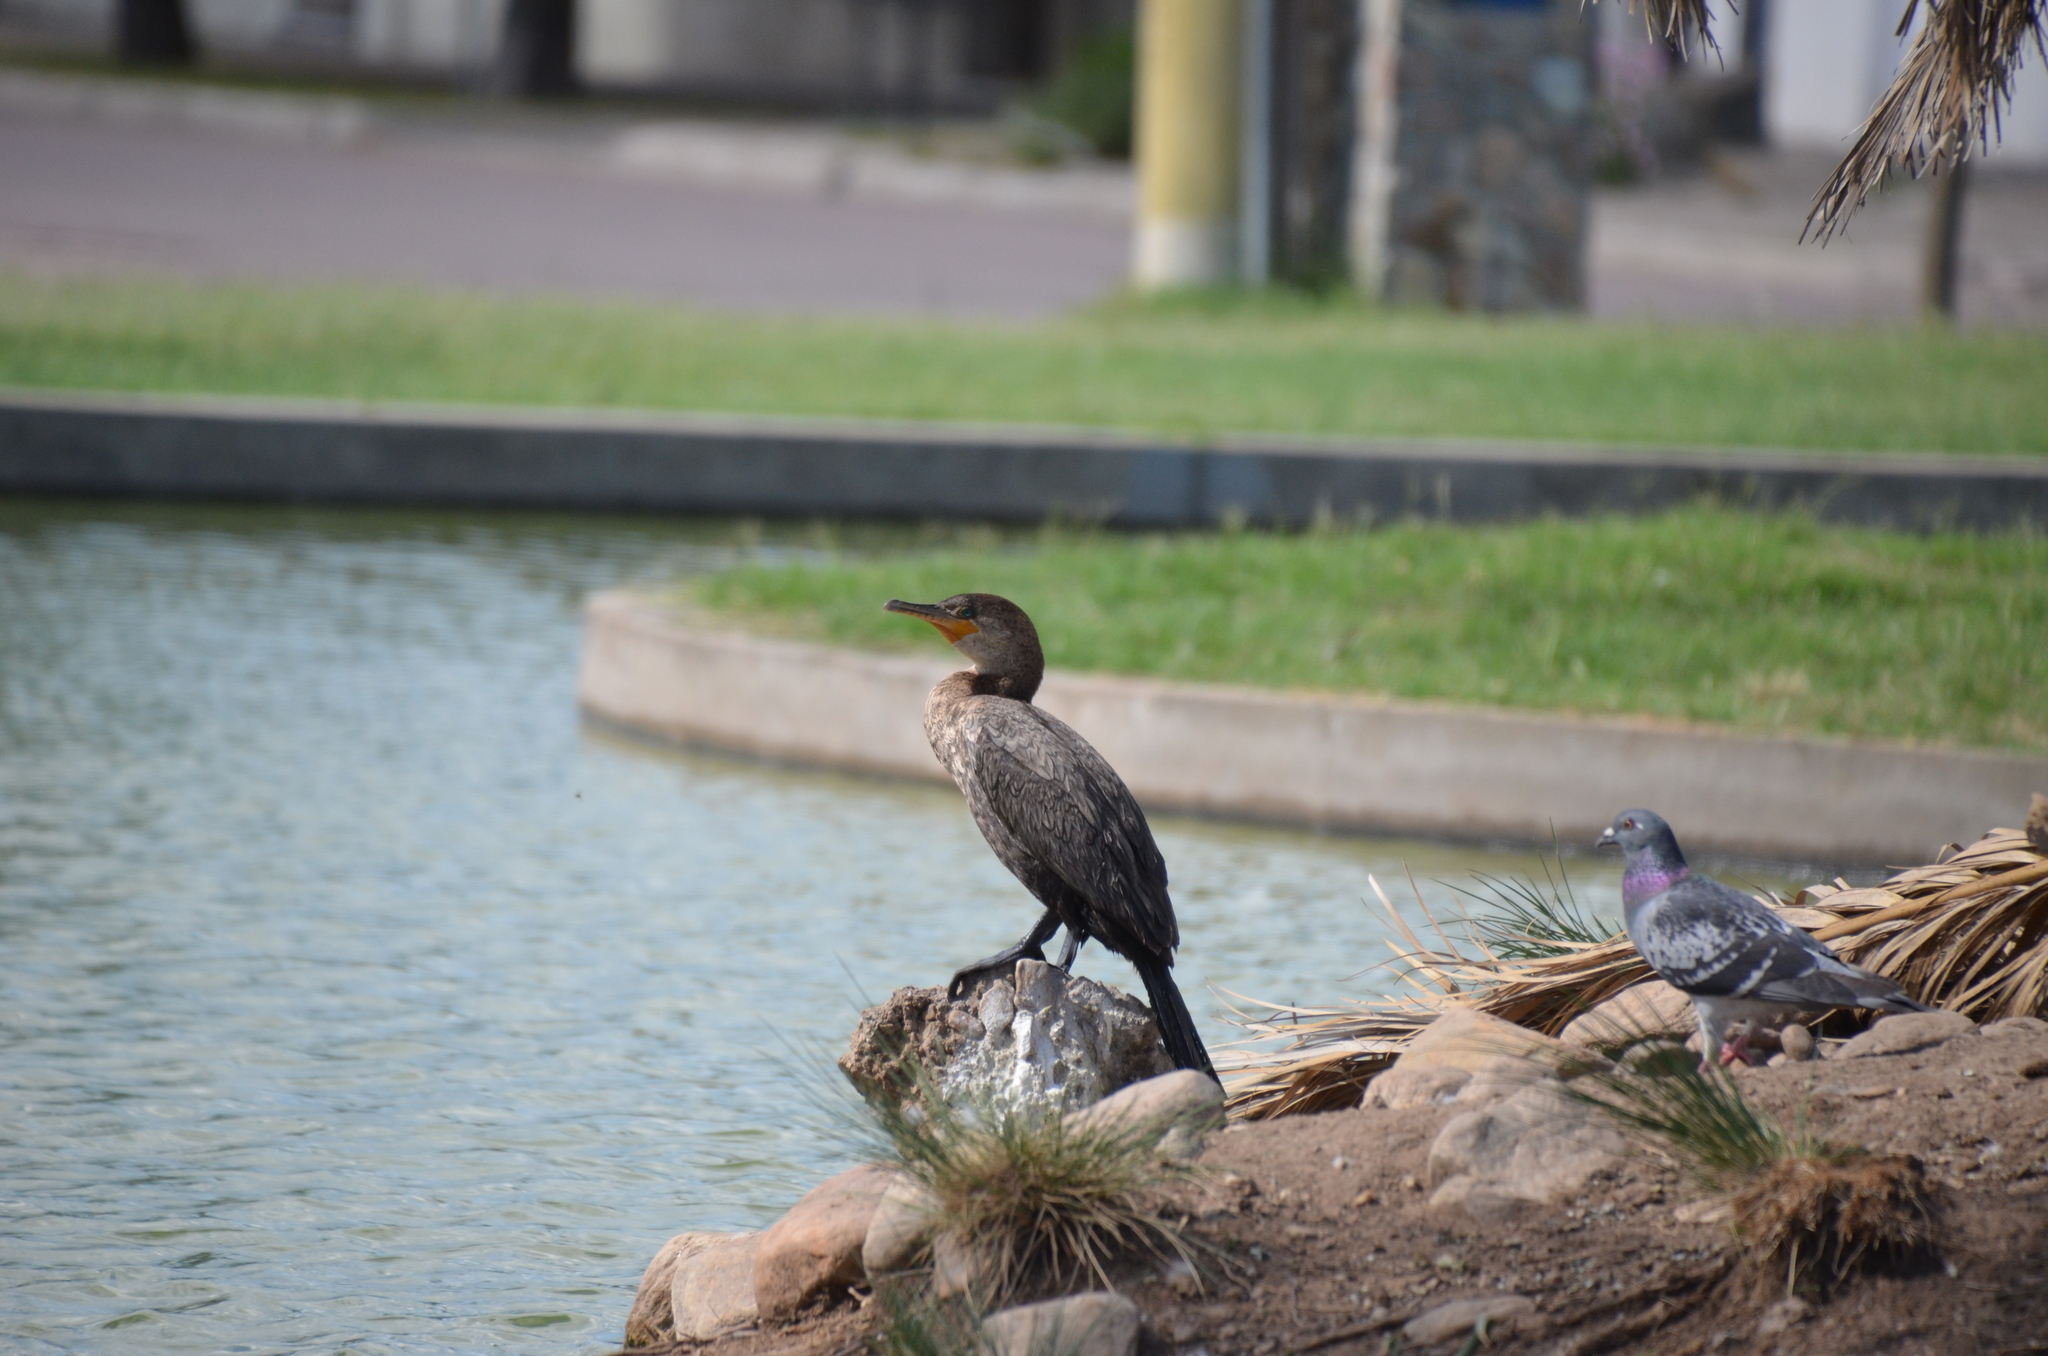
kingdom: Animalia
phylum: Chordata
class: Aves
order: Suliformes
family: Phalacrocoracidae
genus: Phalacrocorax
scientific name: Phalacrocorax brasilianus
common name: Neotropic cormorant
